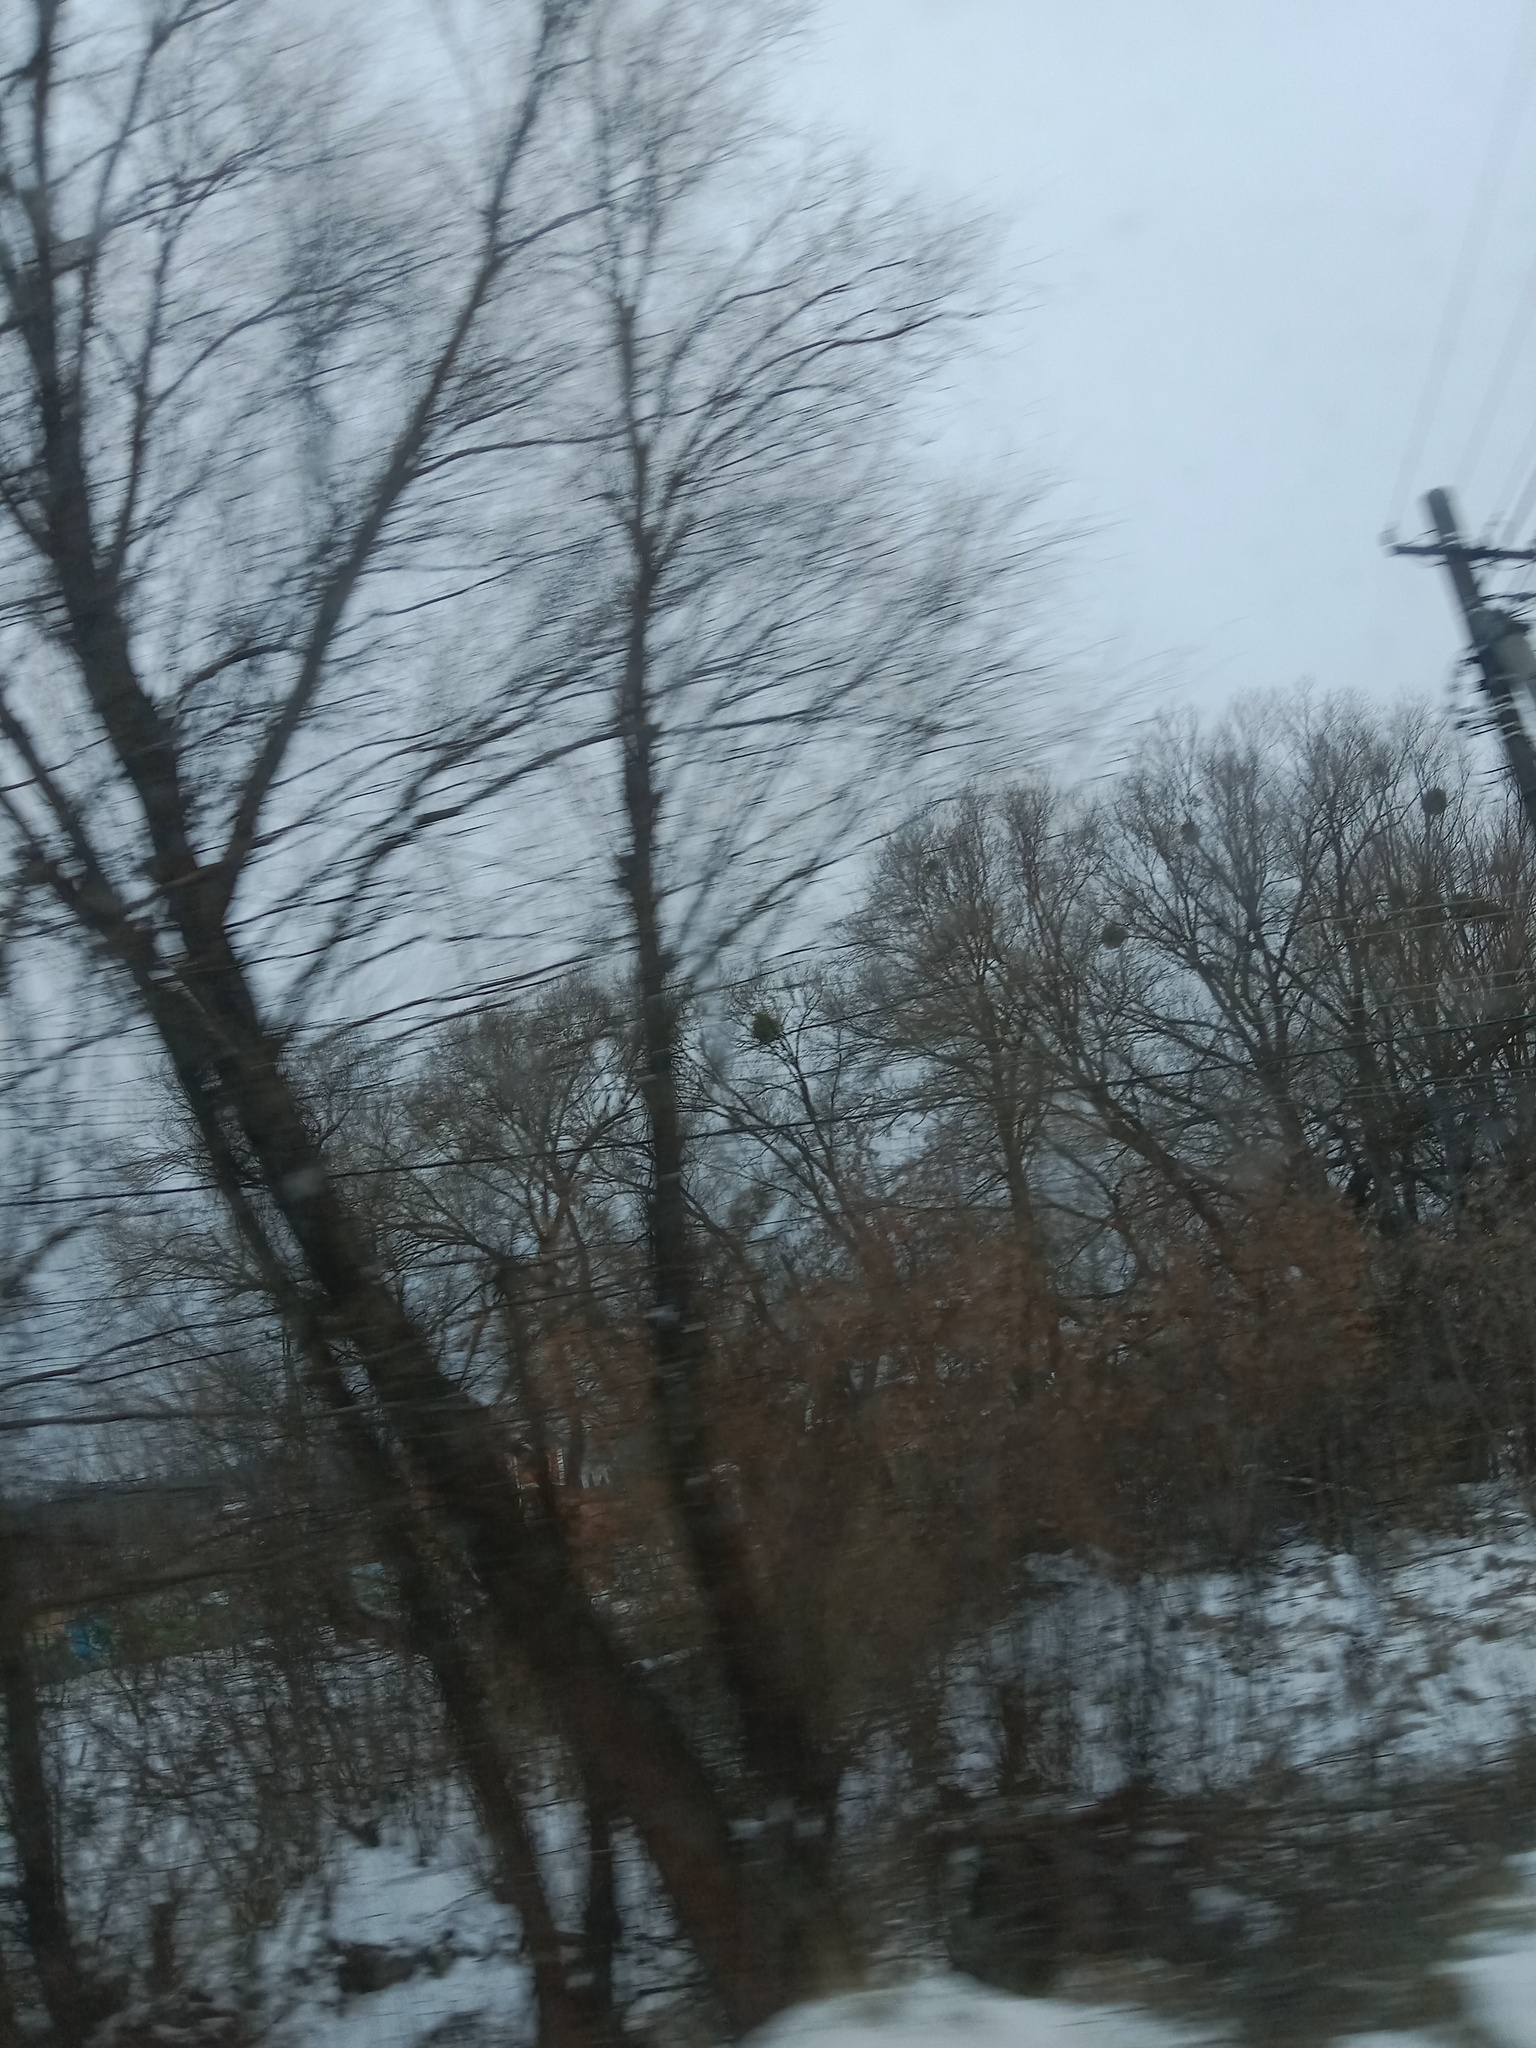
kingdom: Plantae
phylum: Tracheophyta
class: Magnoliopsida
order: Santalales
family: Viscaceae
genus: Viscum
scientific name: Viscum album
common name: Mistletoe
